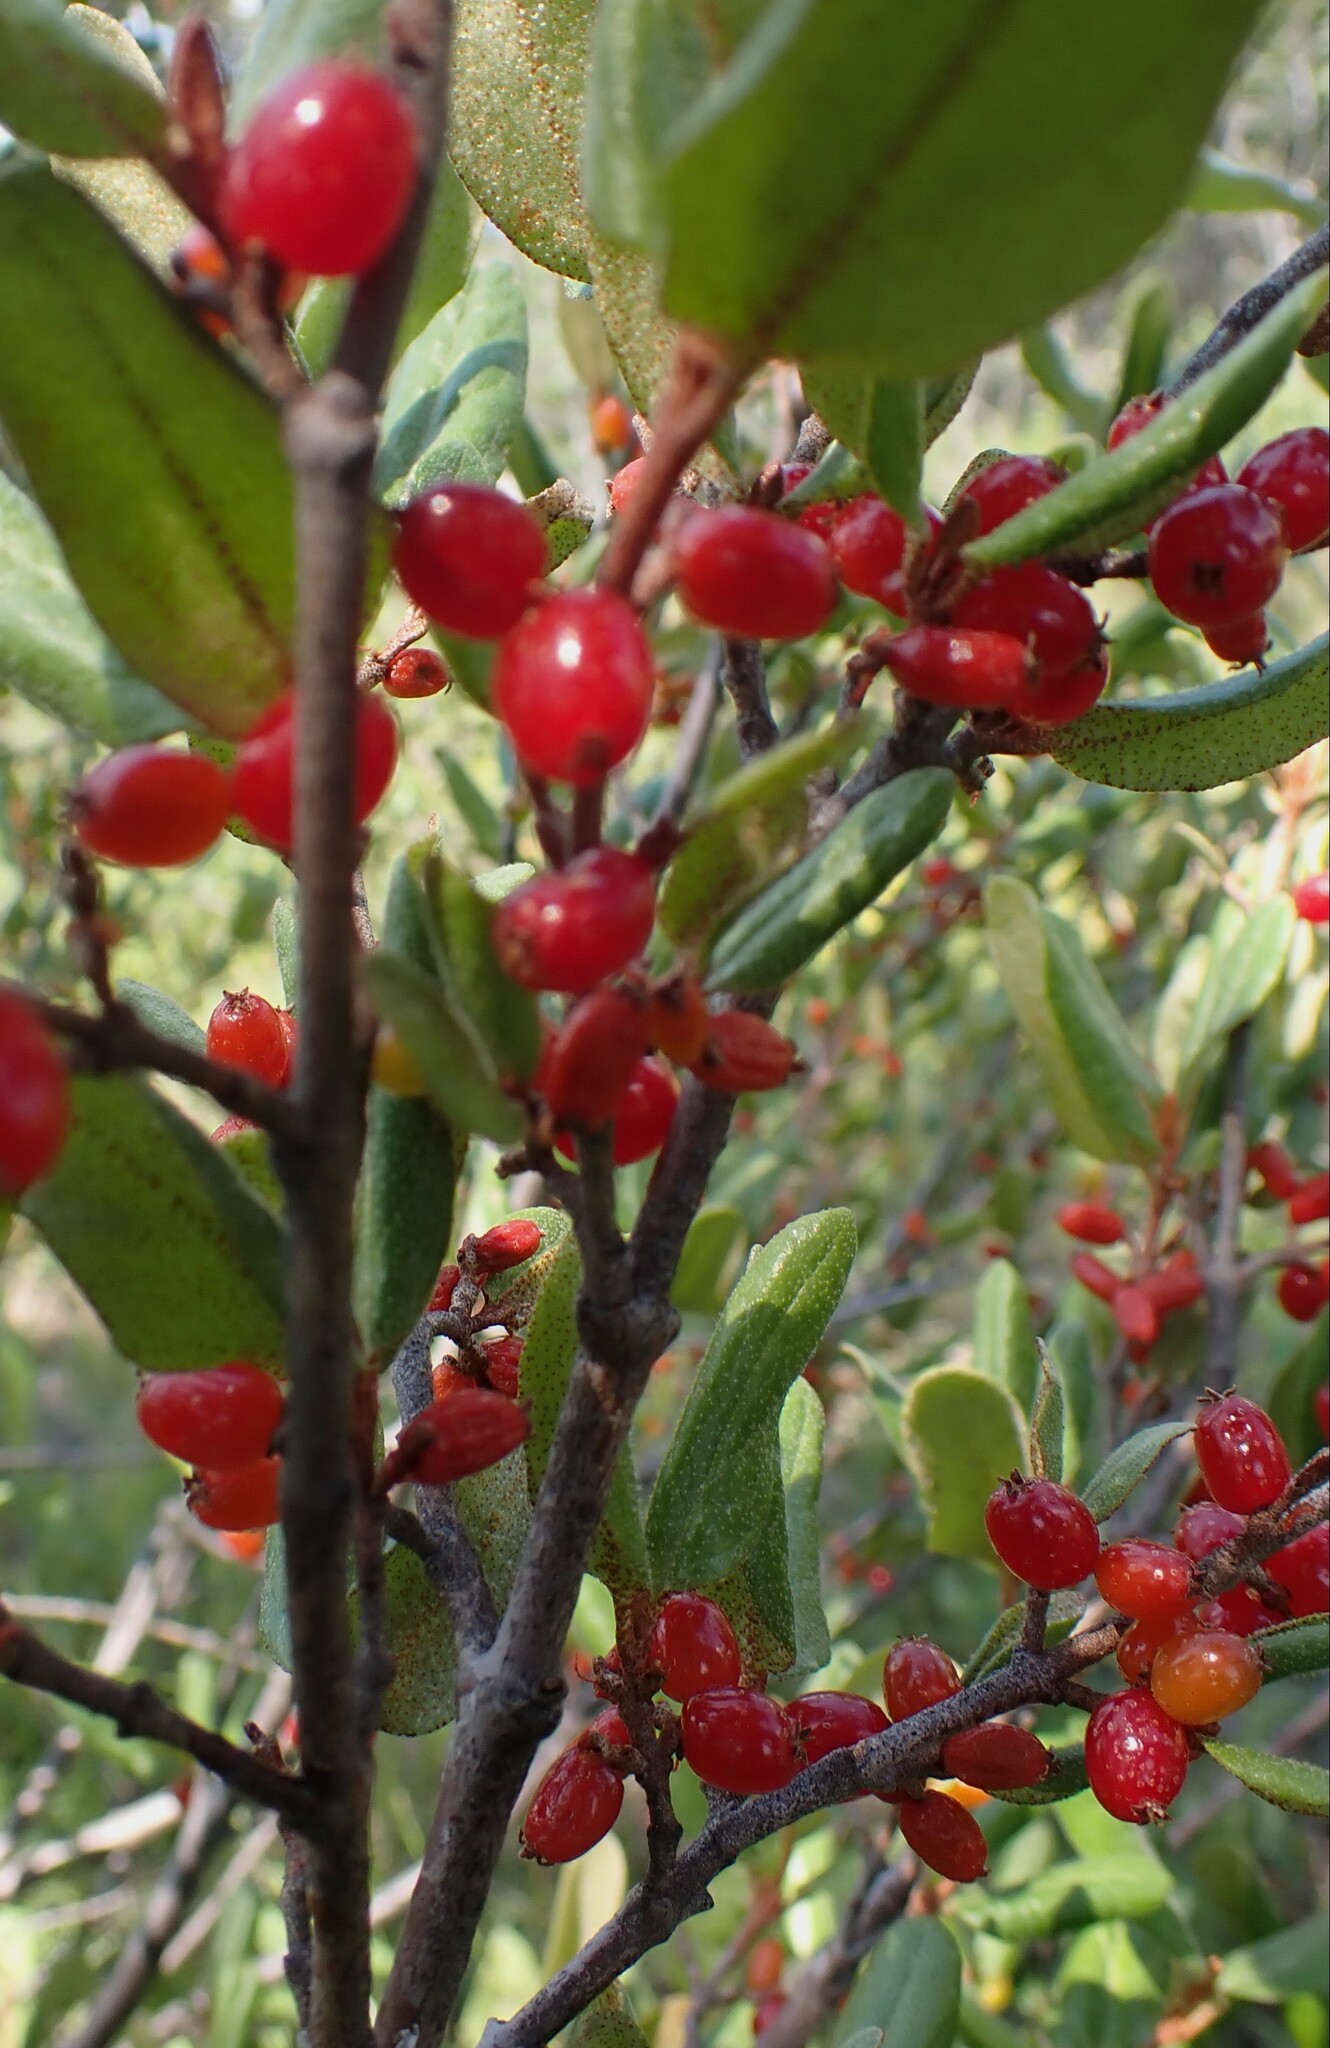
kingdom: Plantae
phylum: Tracheophyta
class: Magnoliopsida
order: Rosales
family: Elaeagnaceae
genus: Shepherdia
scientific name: Shepherdia canadensis
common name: Soapberry
